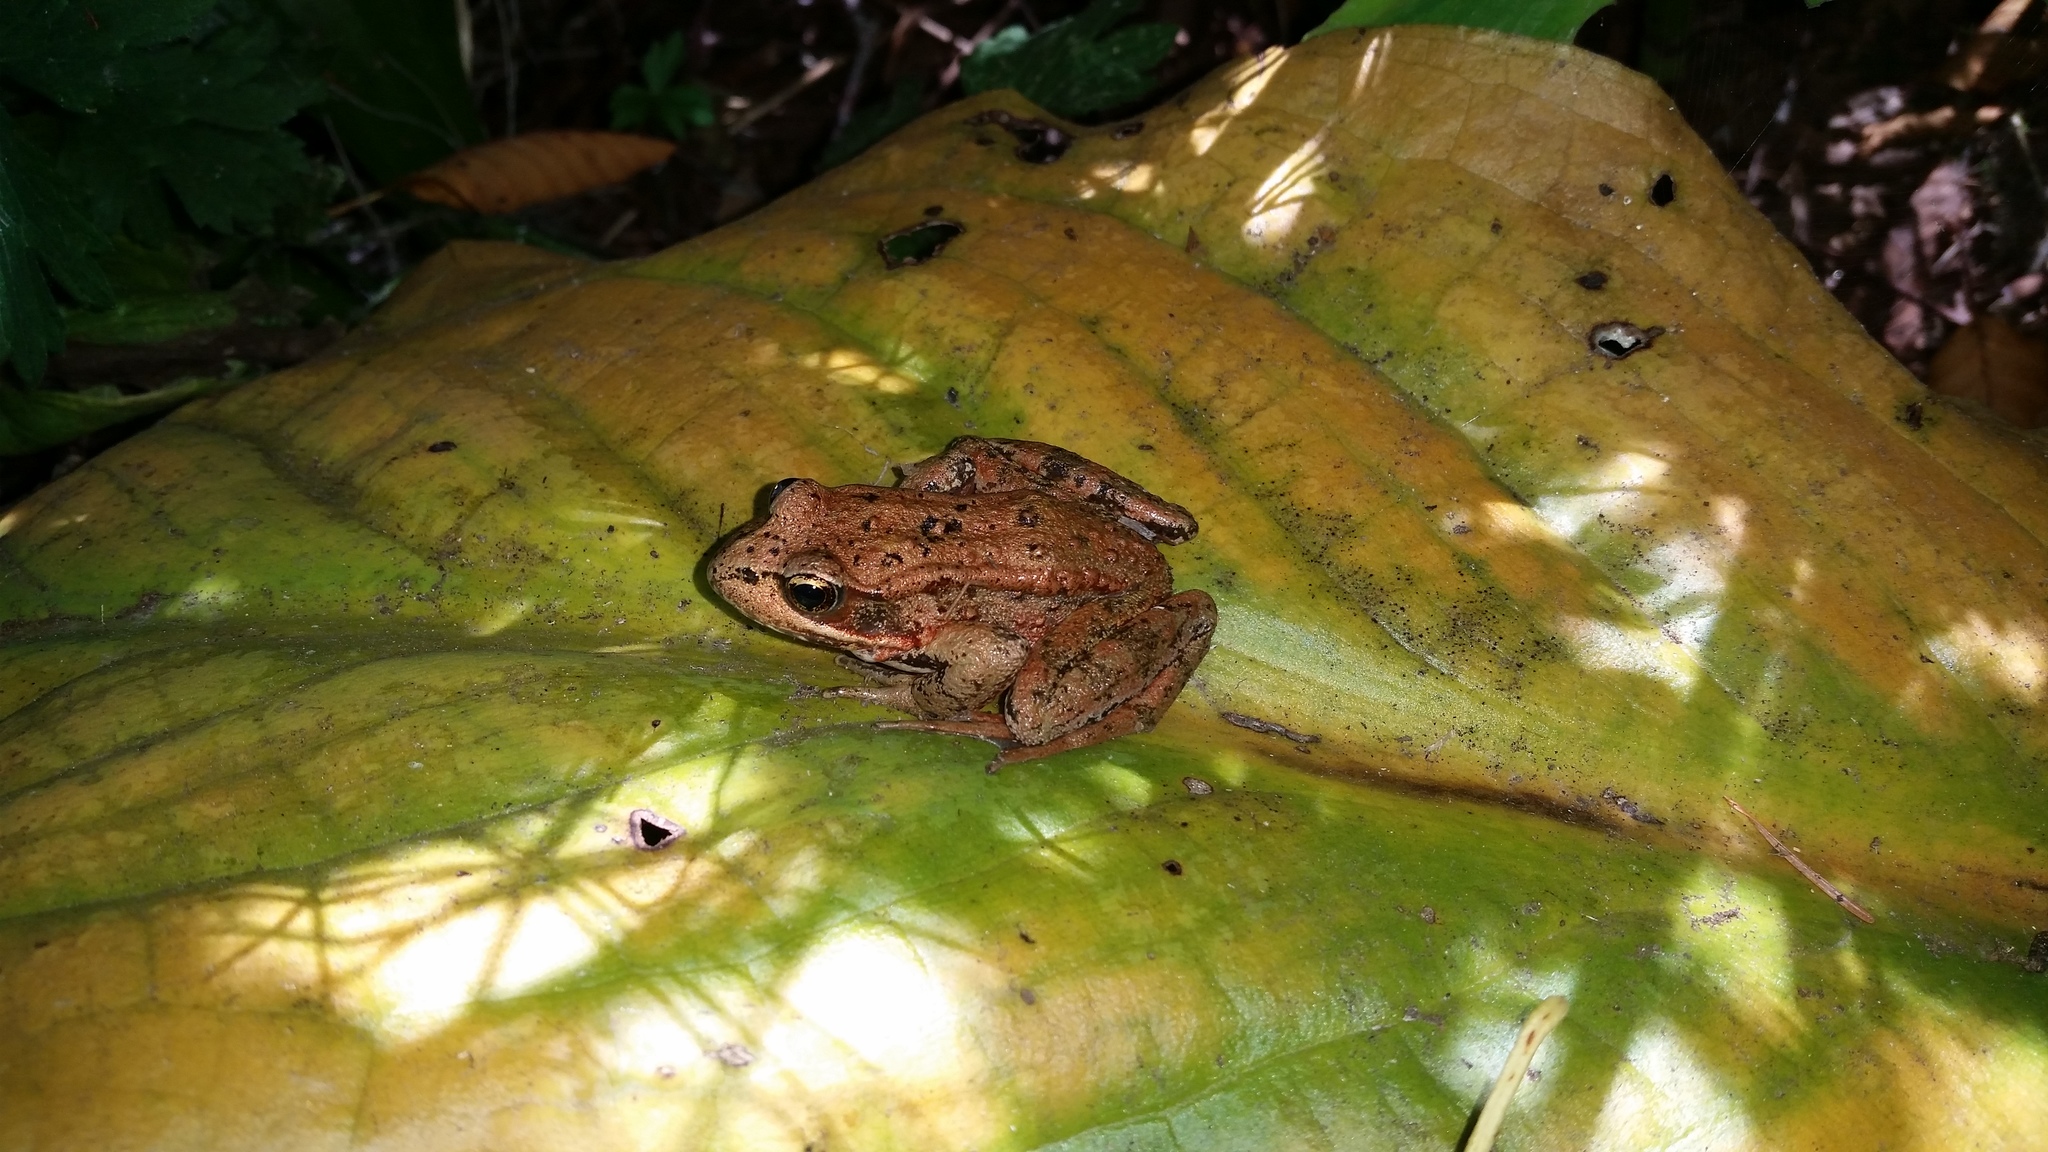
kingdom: Animalia
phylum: Chordata
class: Amphibia
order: Anura
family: Ranidae
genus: Rana
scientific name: Rana aurora
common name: Red-legged frog
